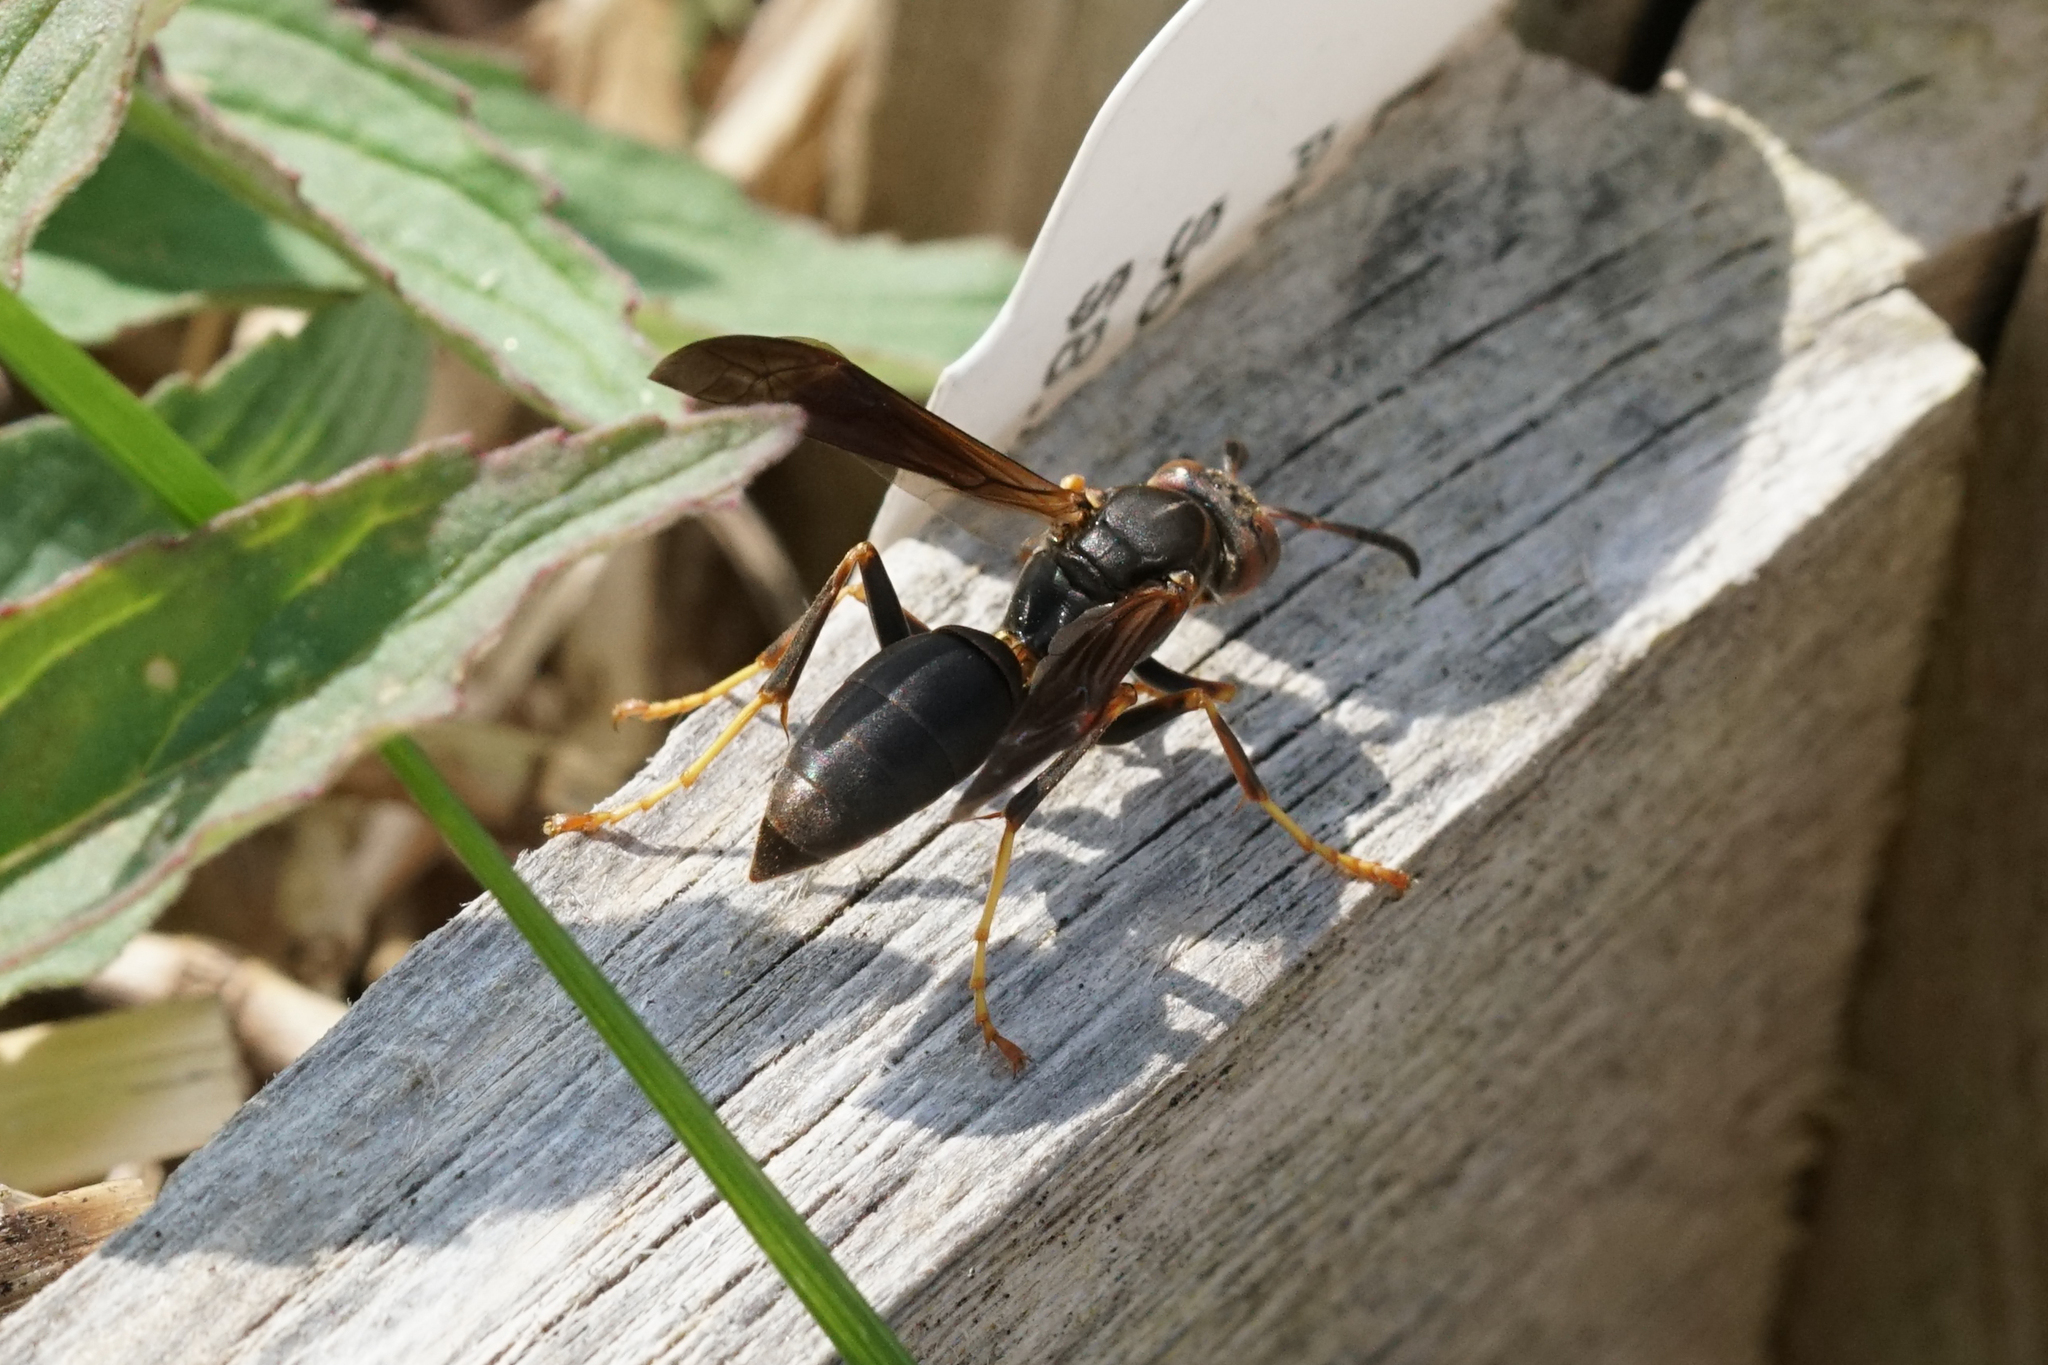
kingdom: Animalia
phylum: Arthropoda
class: Insecta
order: Hymenoptera
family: Eumenidae
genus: Polistes
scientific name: Polistes fuscatus
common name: Dark paper wasp
